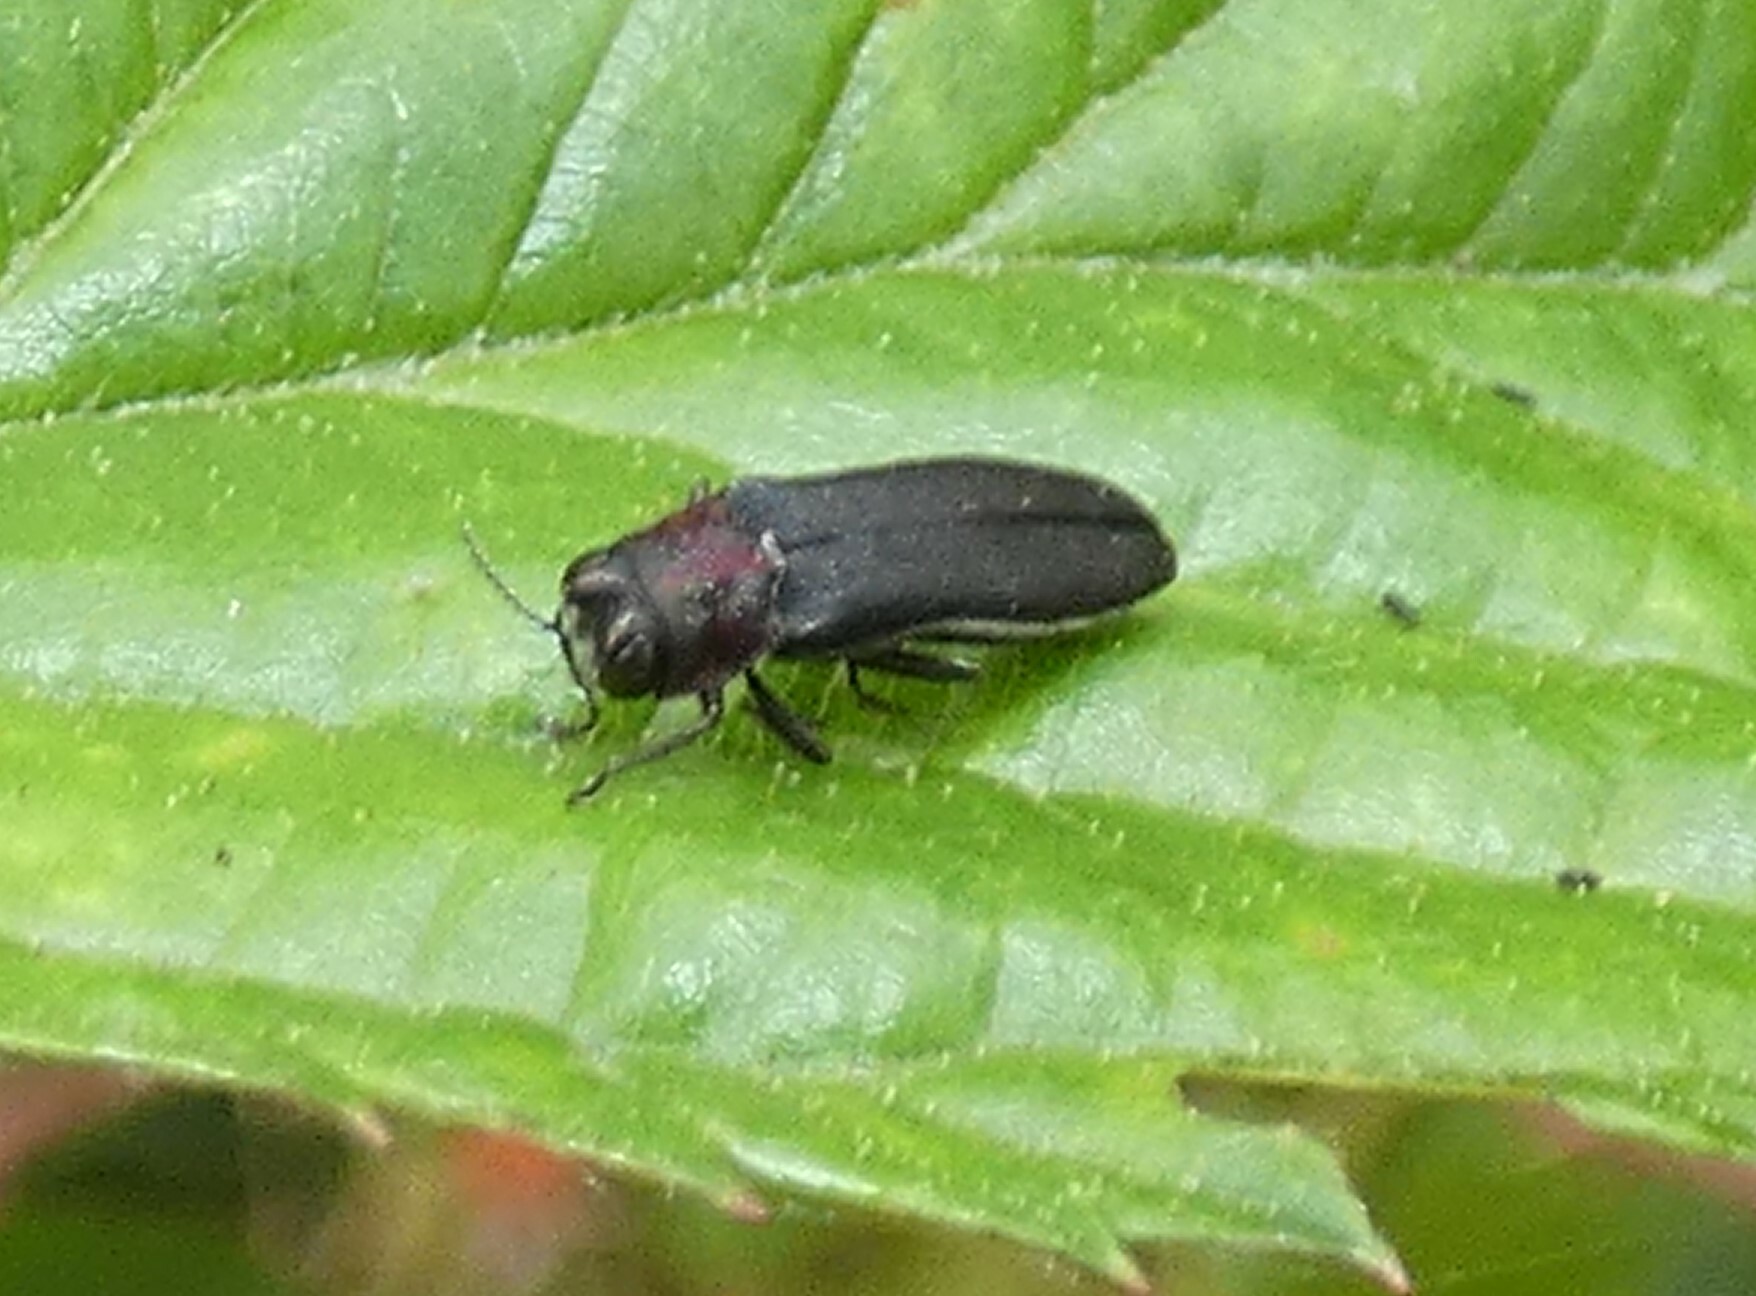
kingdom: Animalia
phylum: Arthropoda
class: Insecta
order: Coleoptera
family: Buprestidae
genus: Agrilus
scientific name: Agrilus ruficollis
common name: Red-necked cane borer beetle
